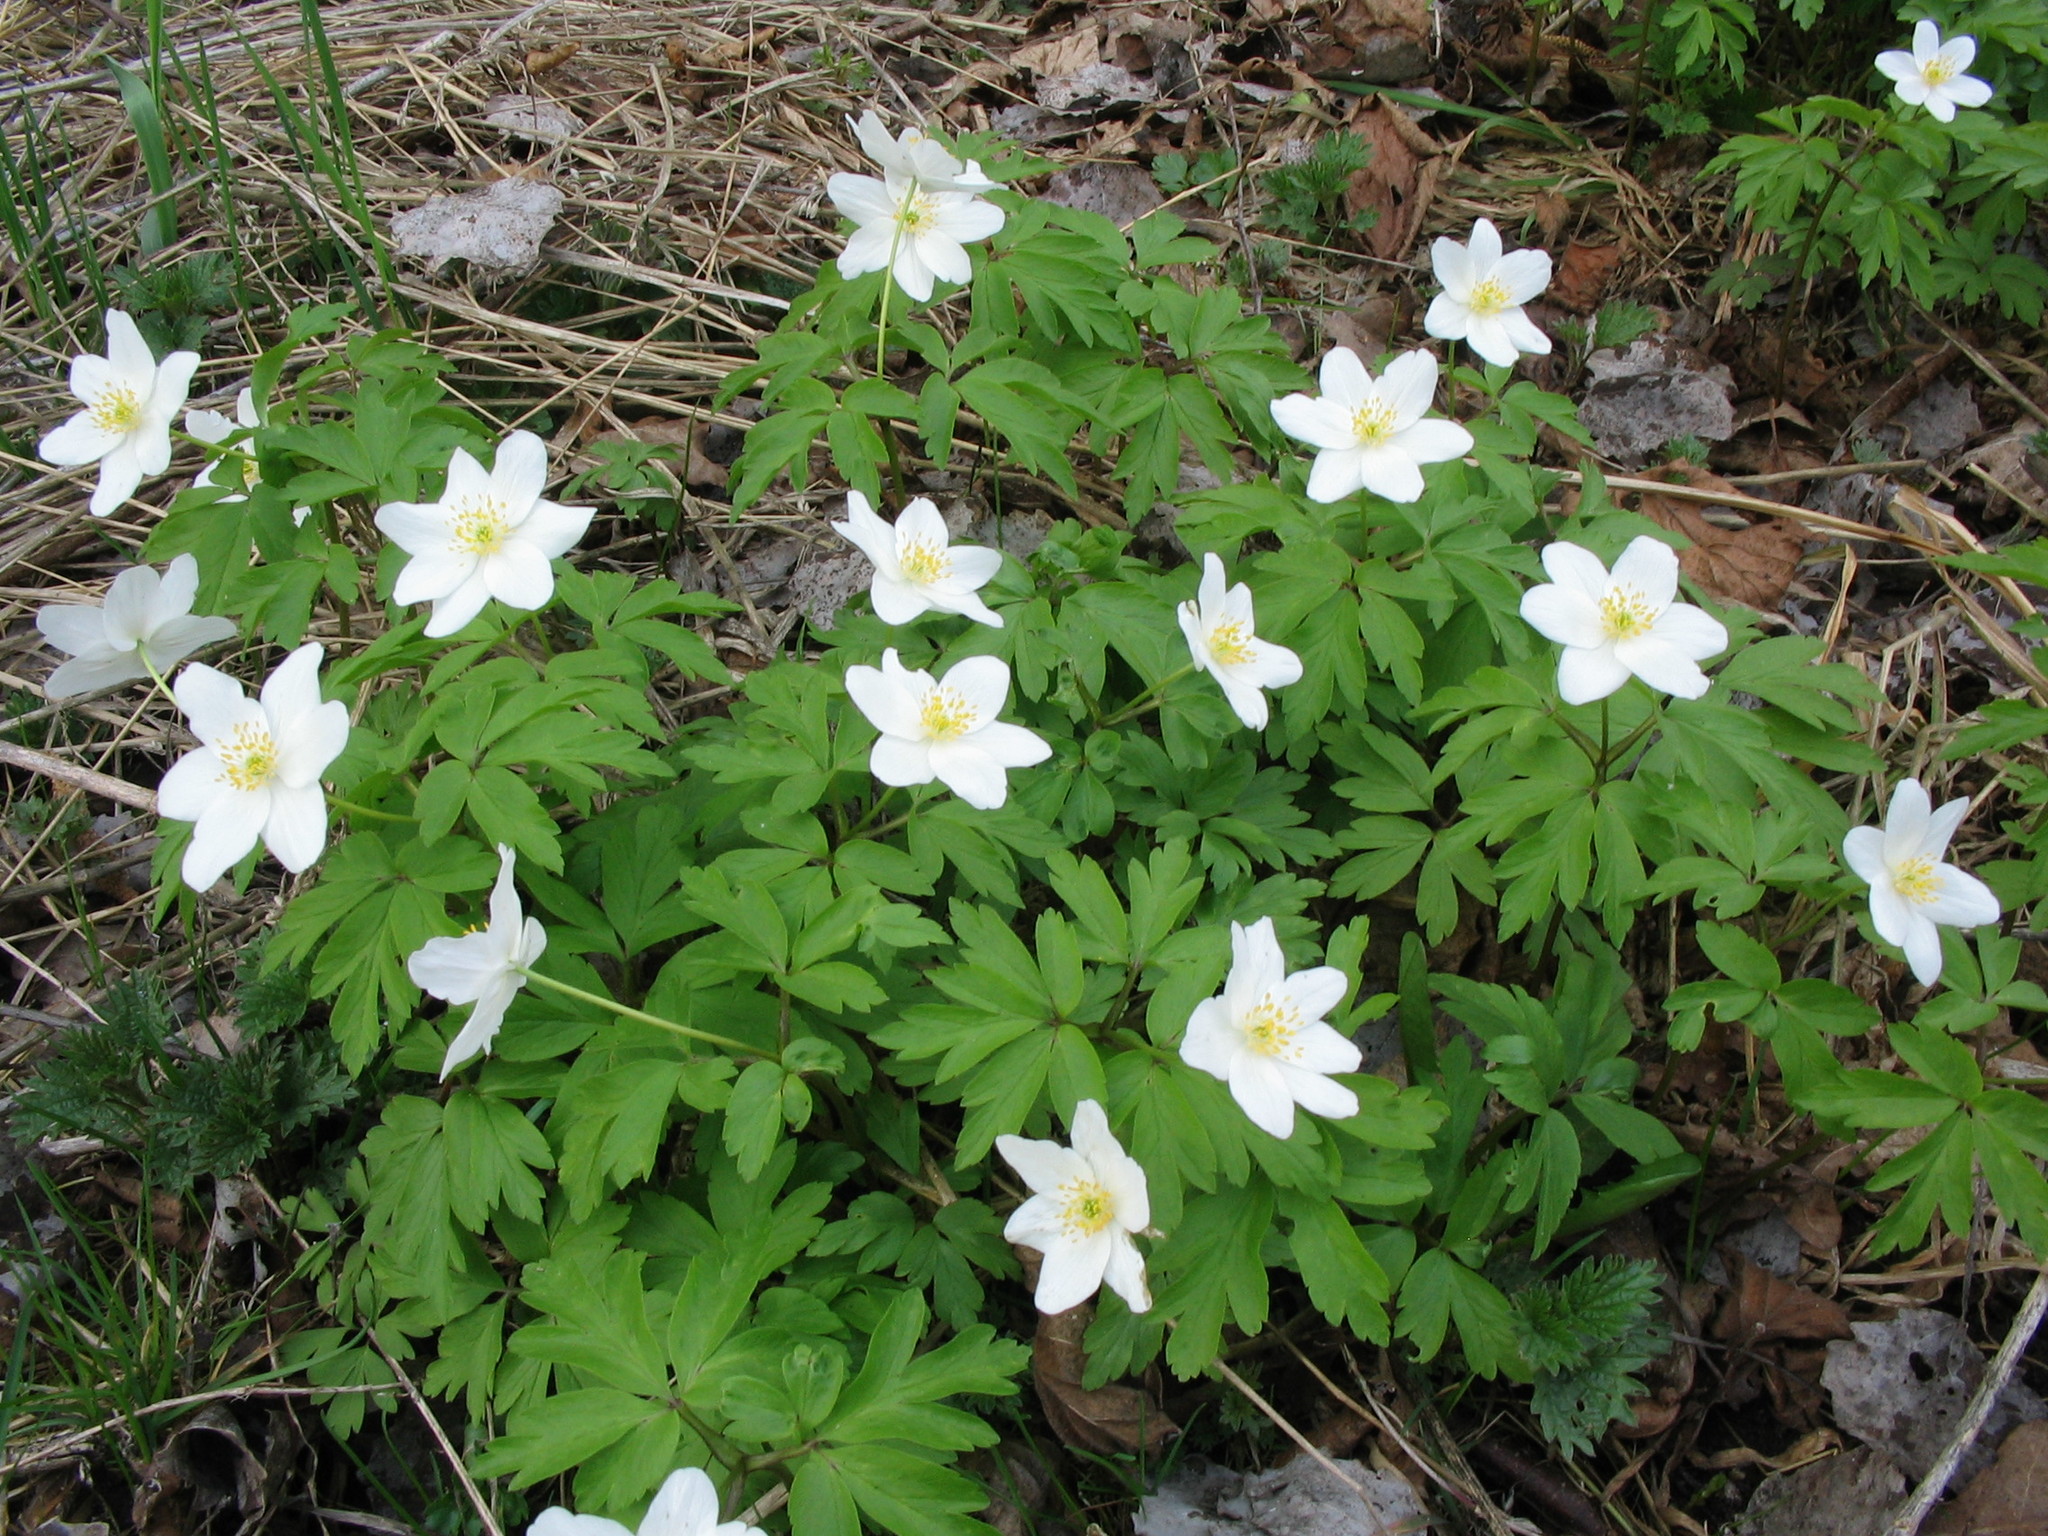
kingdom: Plantae
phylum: Tracheophyta
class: Magnoliopsida
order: Ranunculales
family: Ranunculaceae
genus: Anemone
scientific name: Anemone nemorosa
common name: Wood anemone
